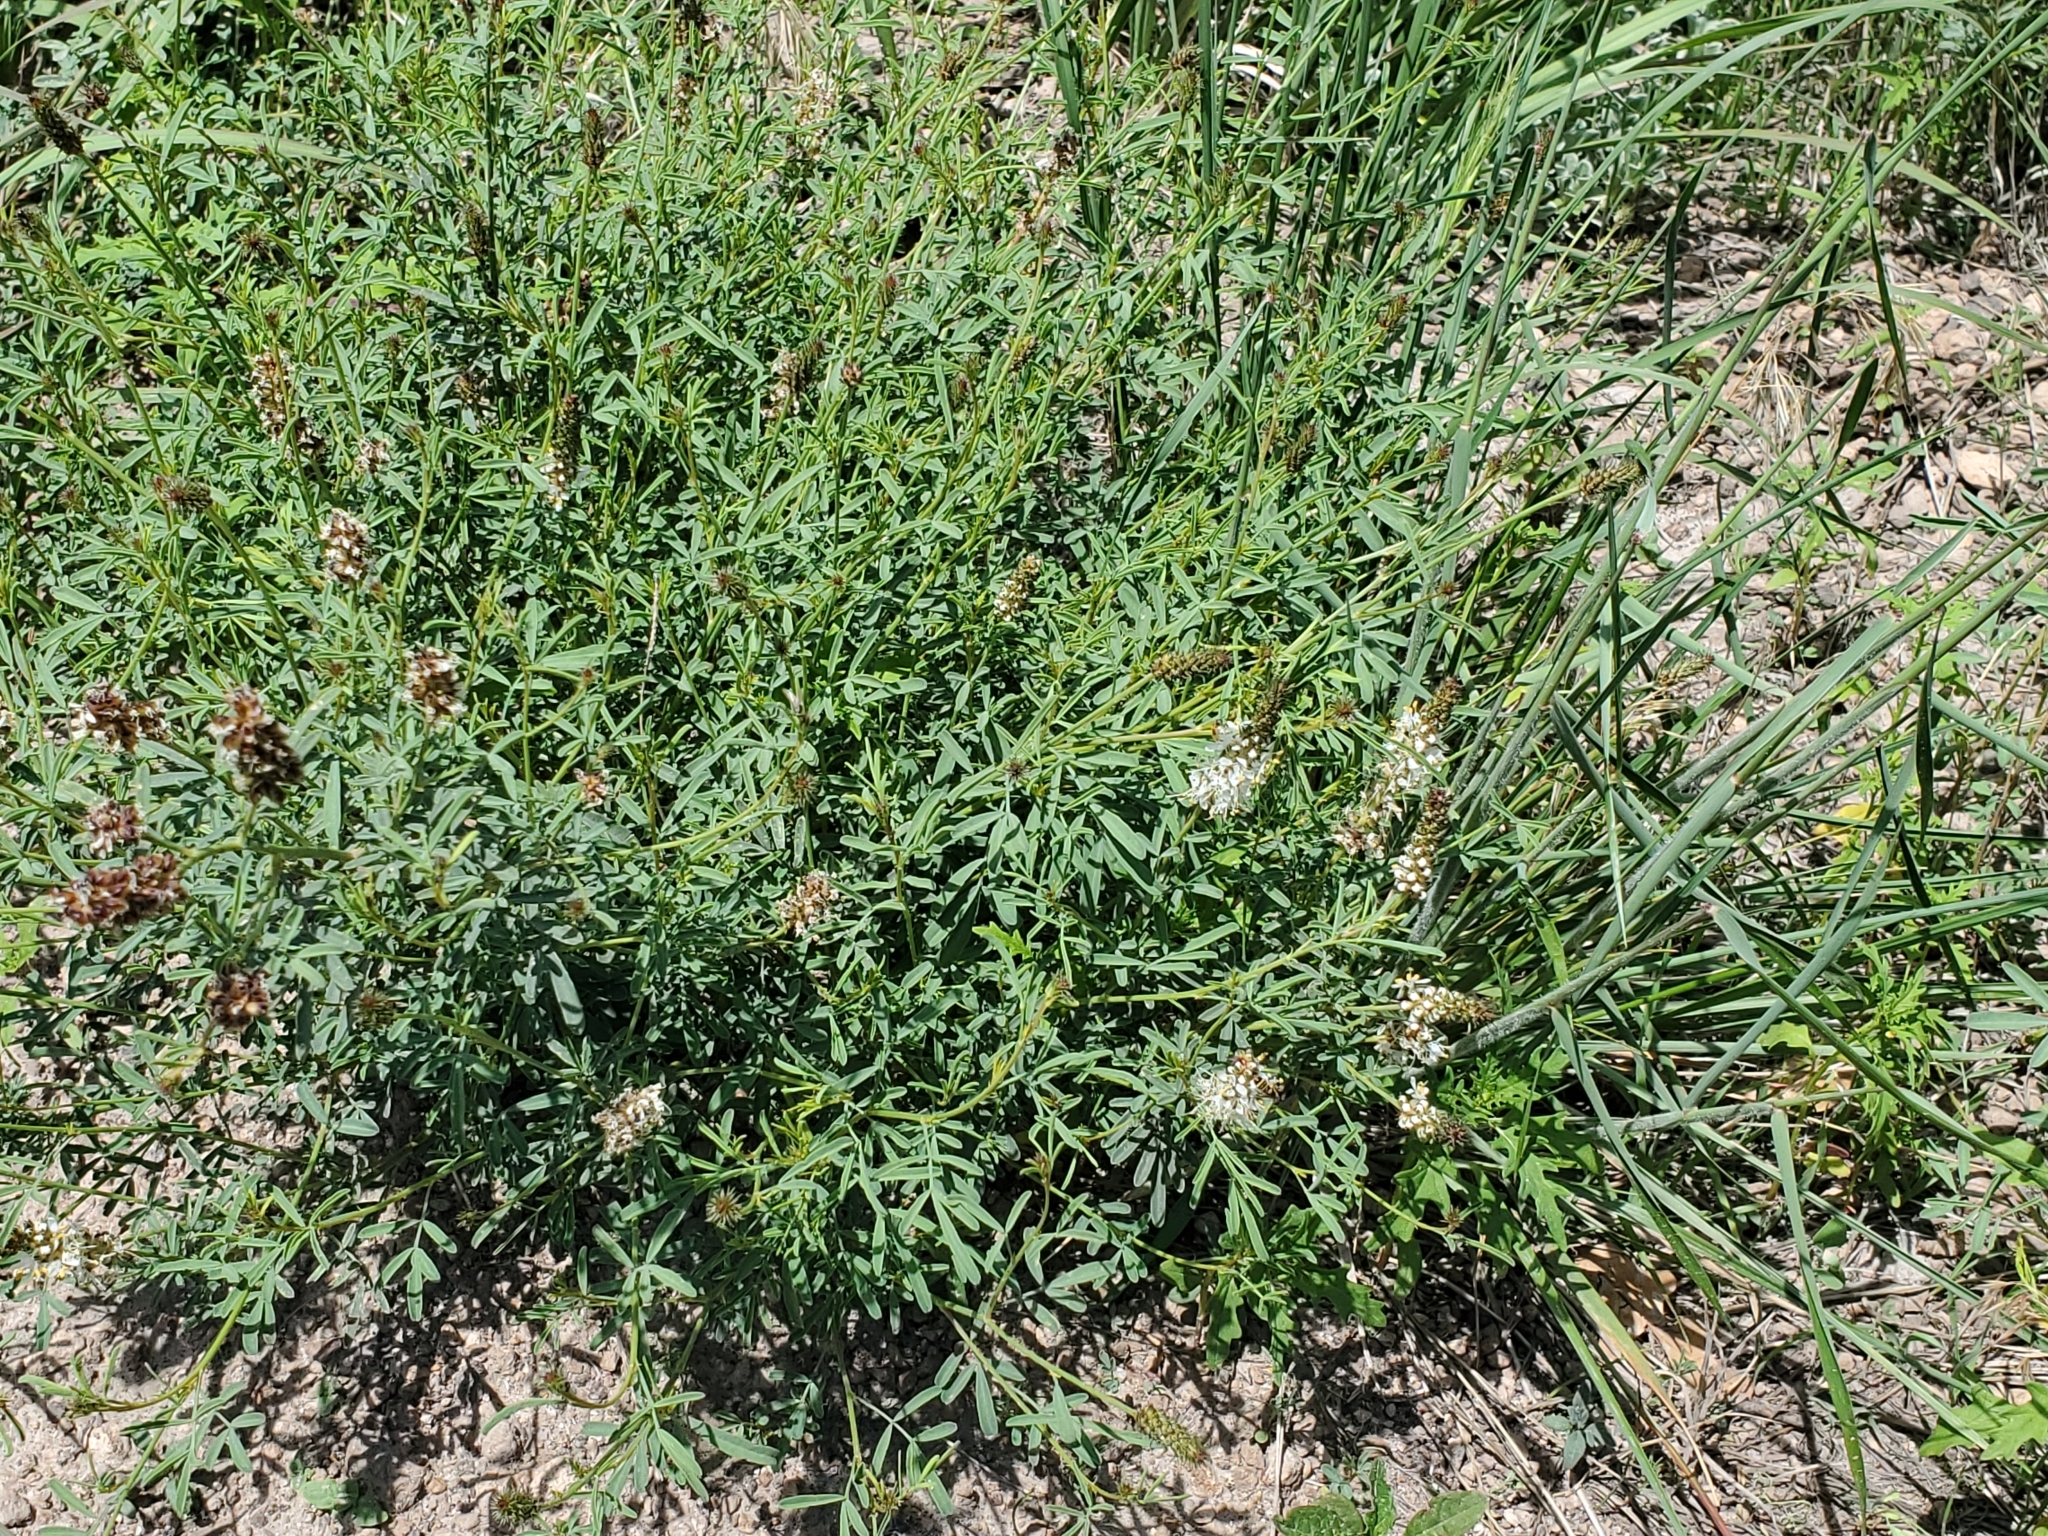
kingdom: Plantae
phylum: Tracheophyta
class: Magnoliopsida
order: Fabales
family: Fabaceae
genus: Dalea
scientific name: Dalea candida
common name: White prairie-clover
